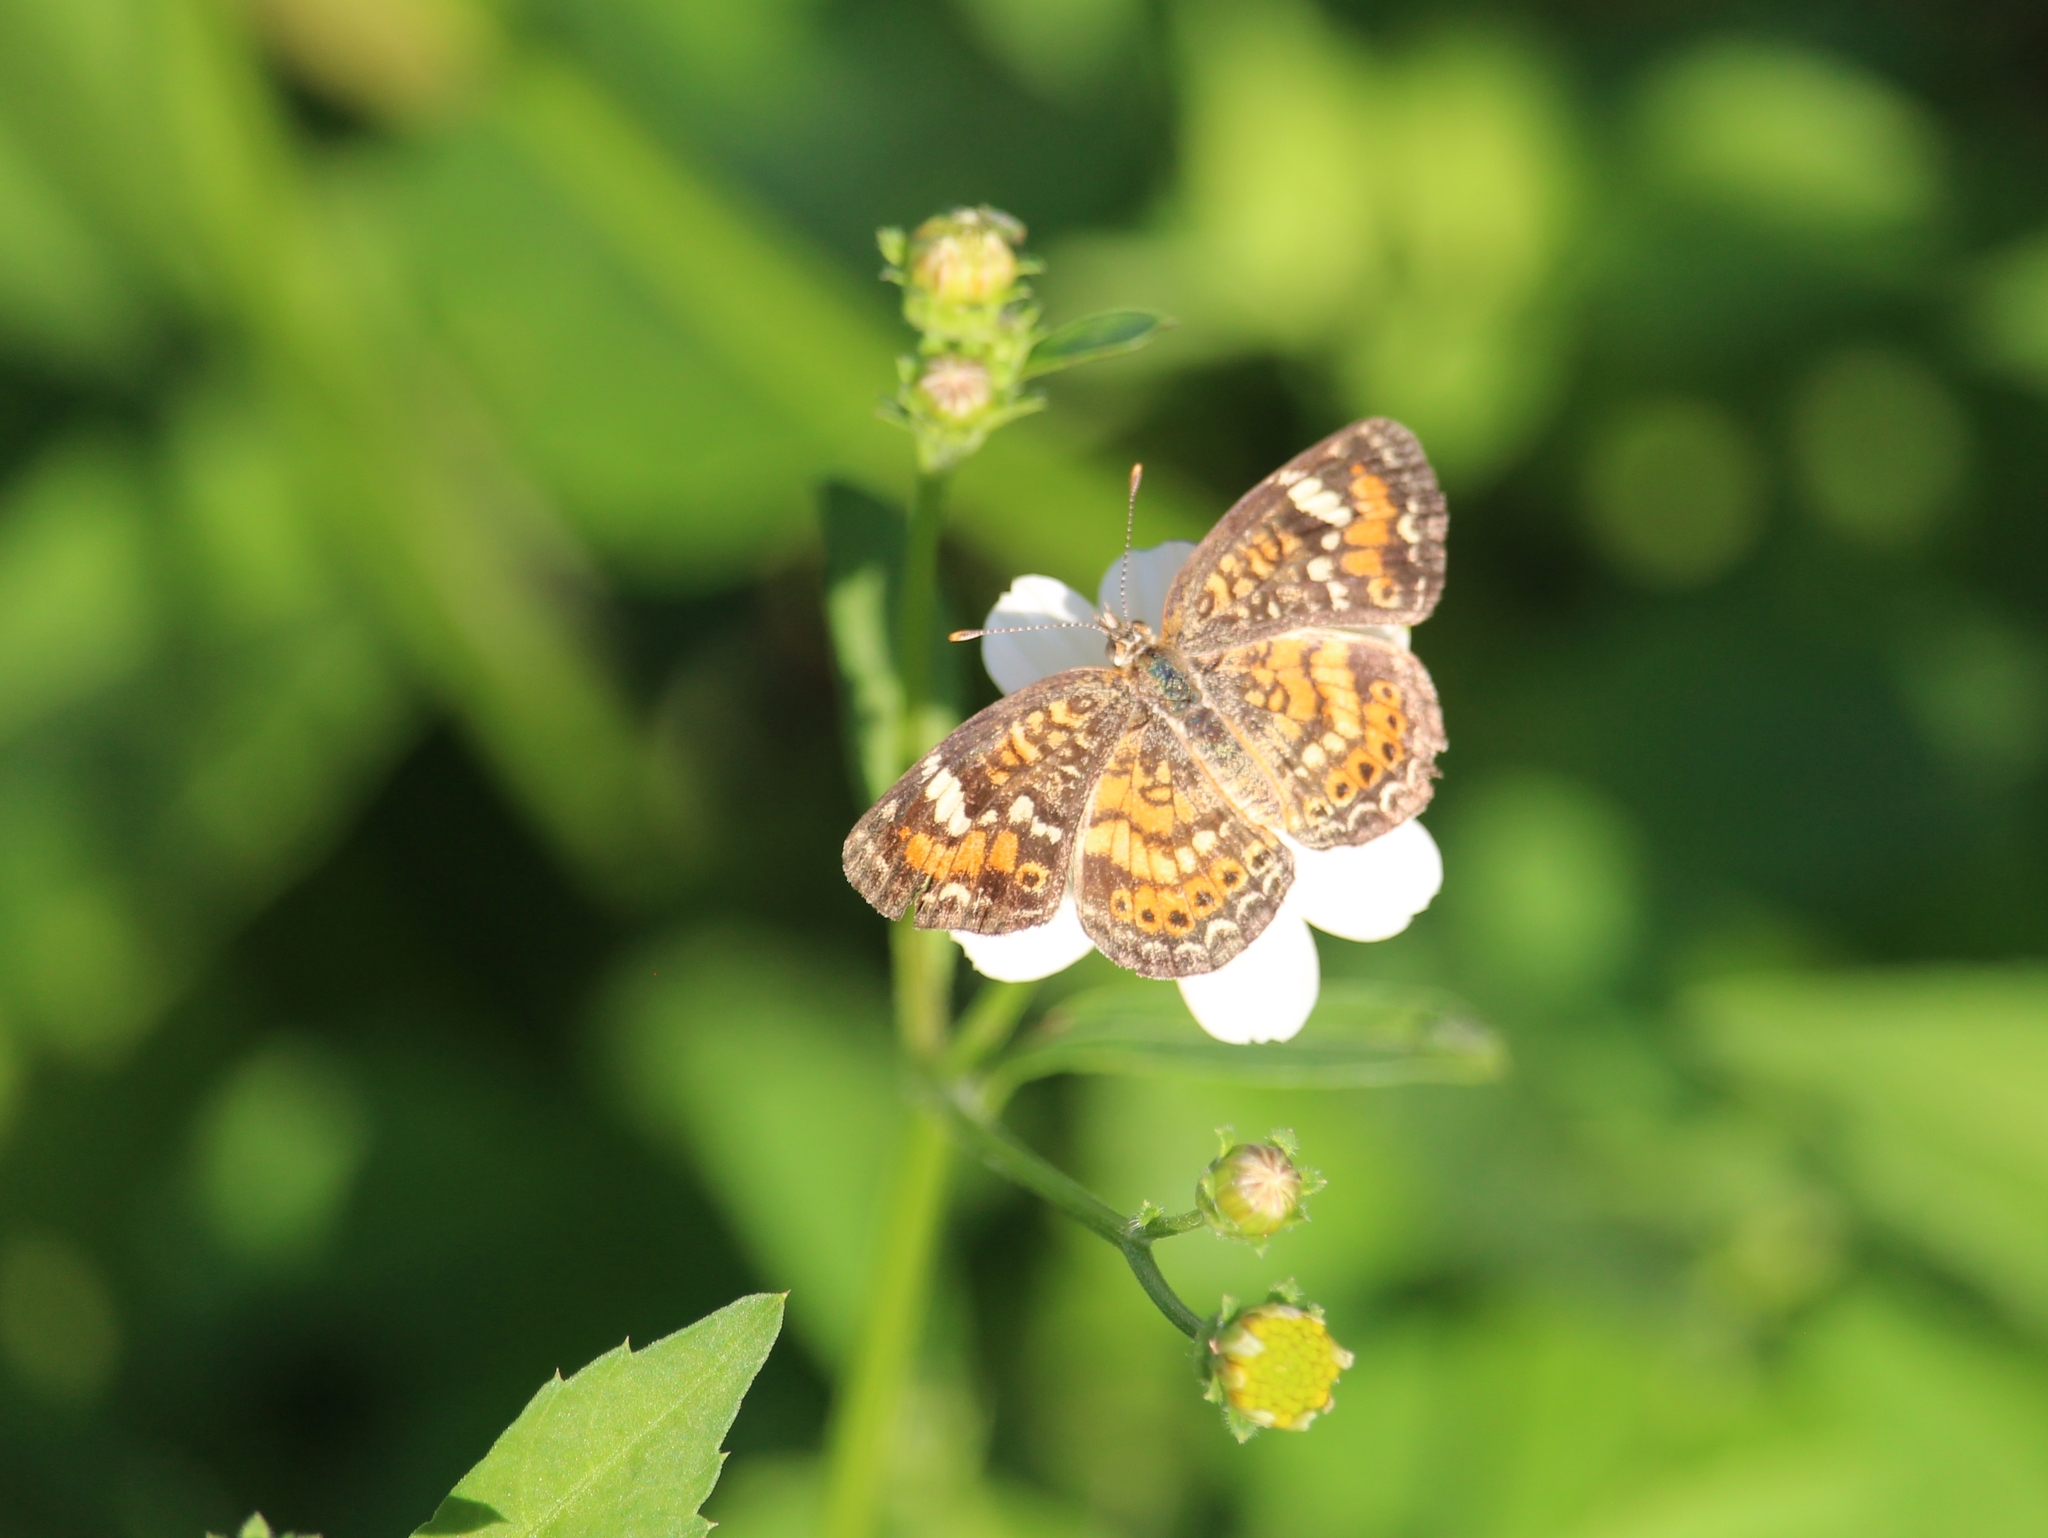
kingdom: Animalia
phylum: Arthropoda
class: Insecta
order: Lepidoptera
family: Nymphalidae
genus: Phyciodes
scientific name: Phyciodes phaon
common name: Phaon crescent
